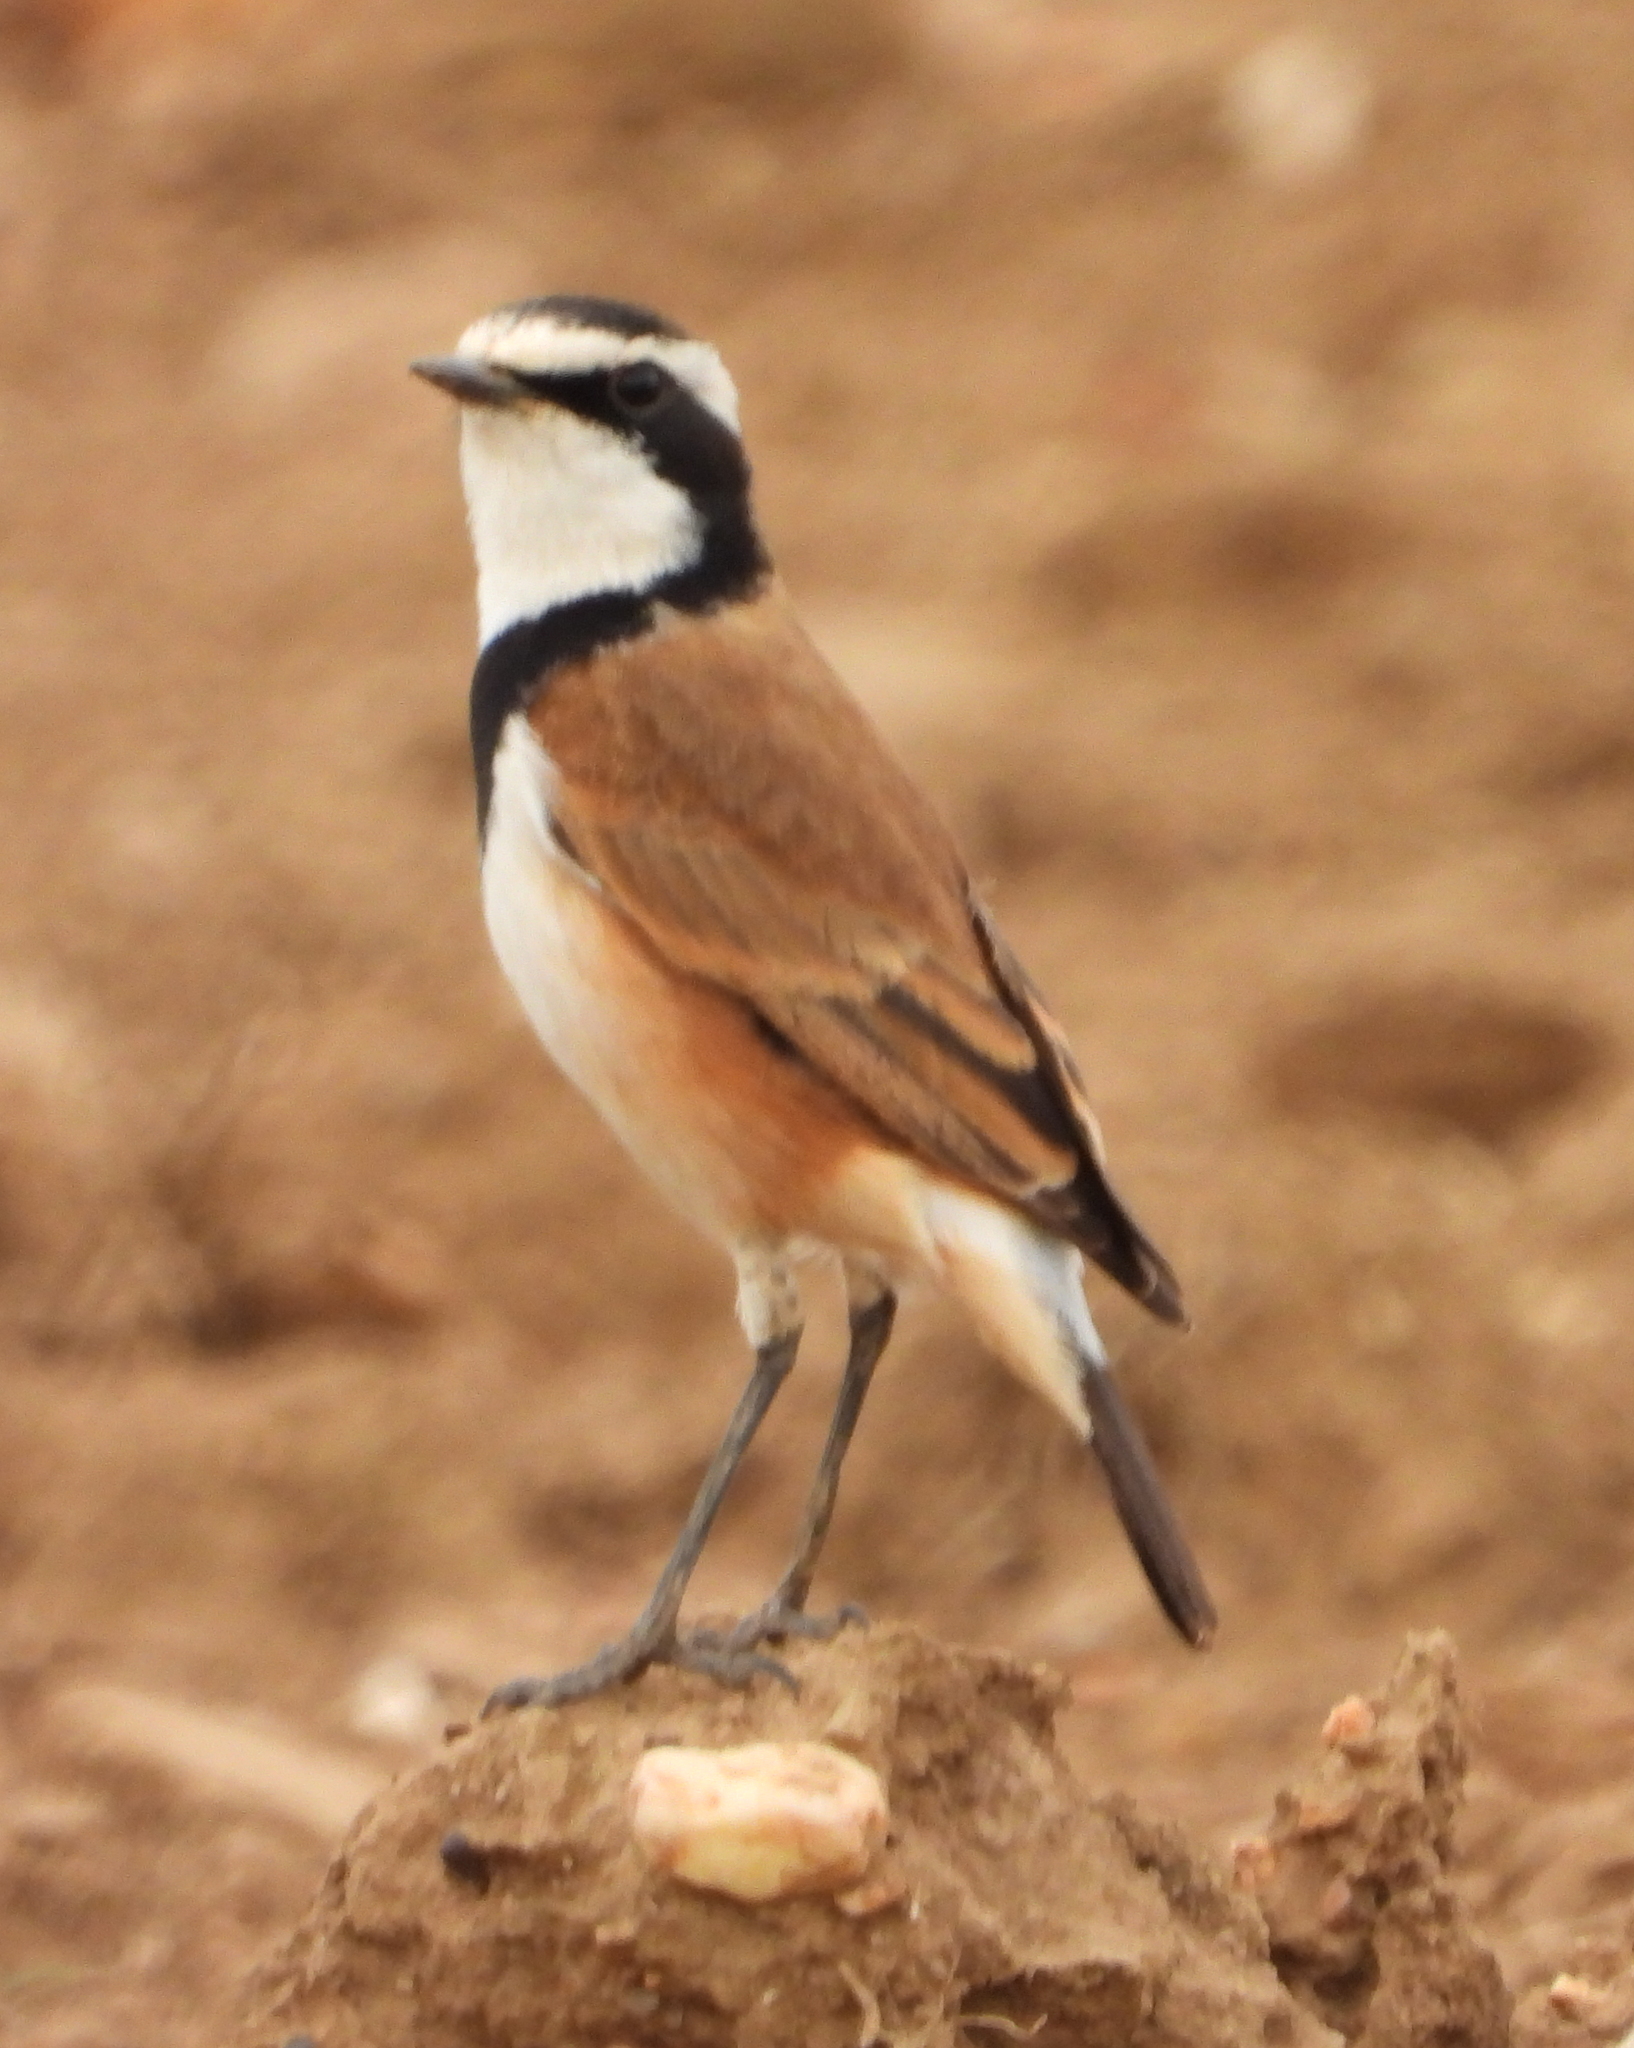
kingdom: Animalia
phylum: Chordata
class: Aves
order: Passeriformes
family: Muscicapidae
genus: Oenanthe
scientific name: Oenanthe pileata
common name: Capped wheatear
